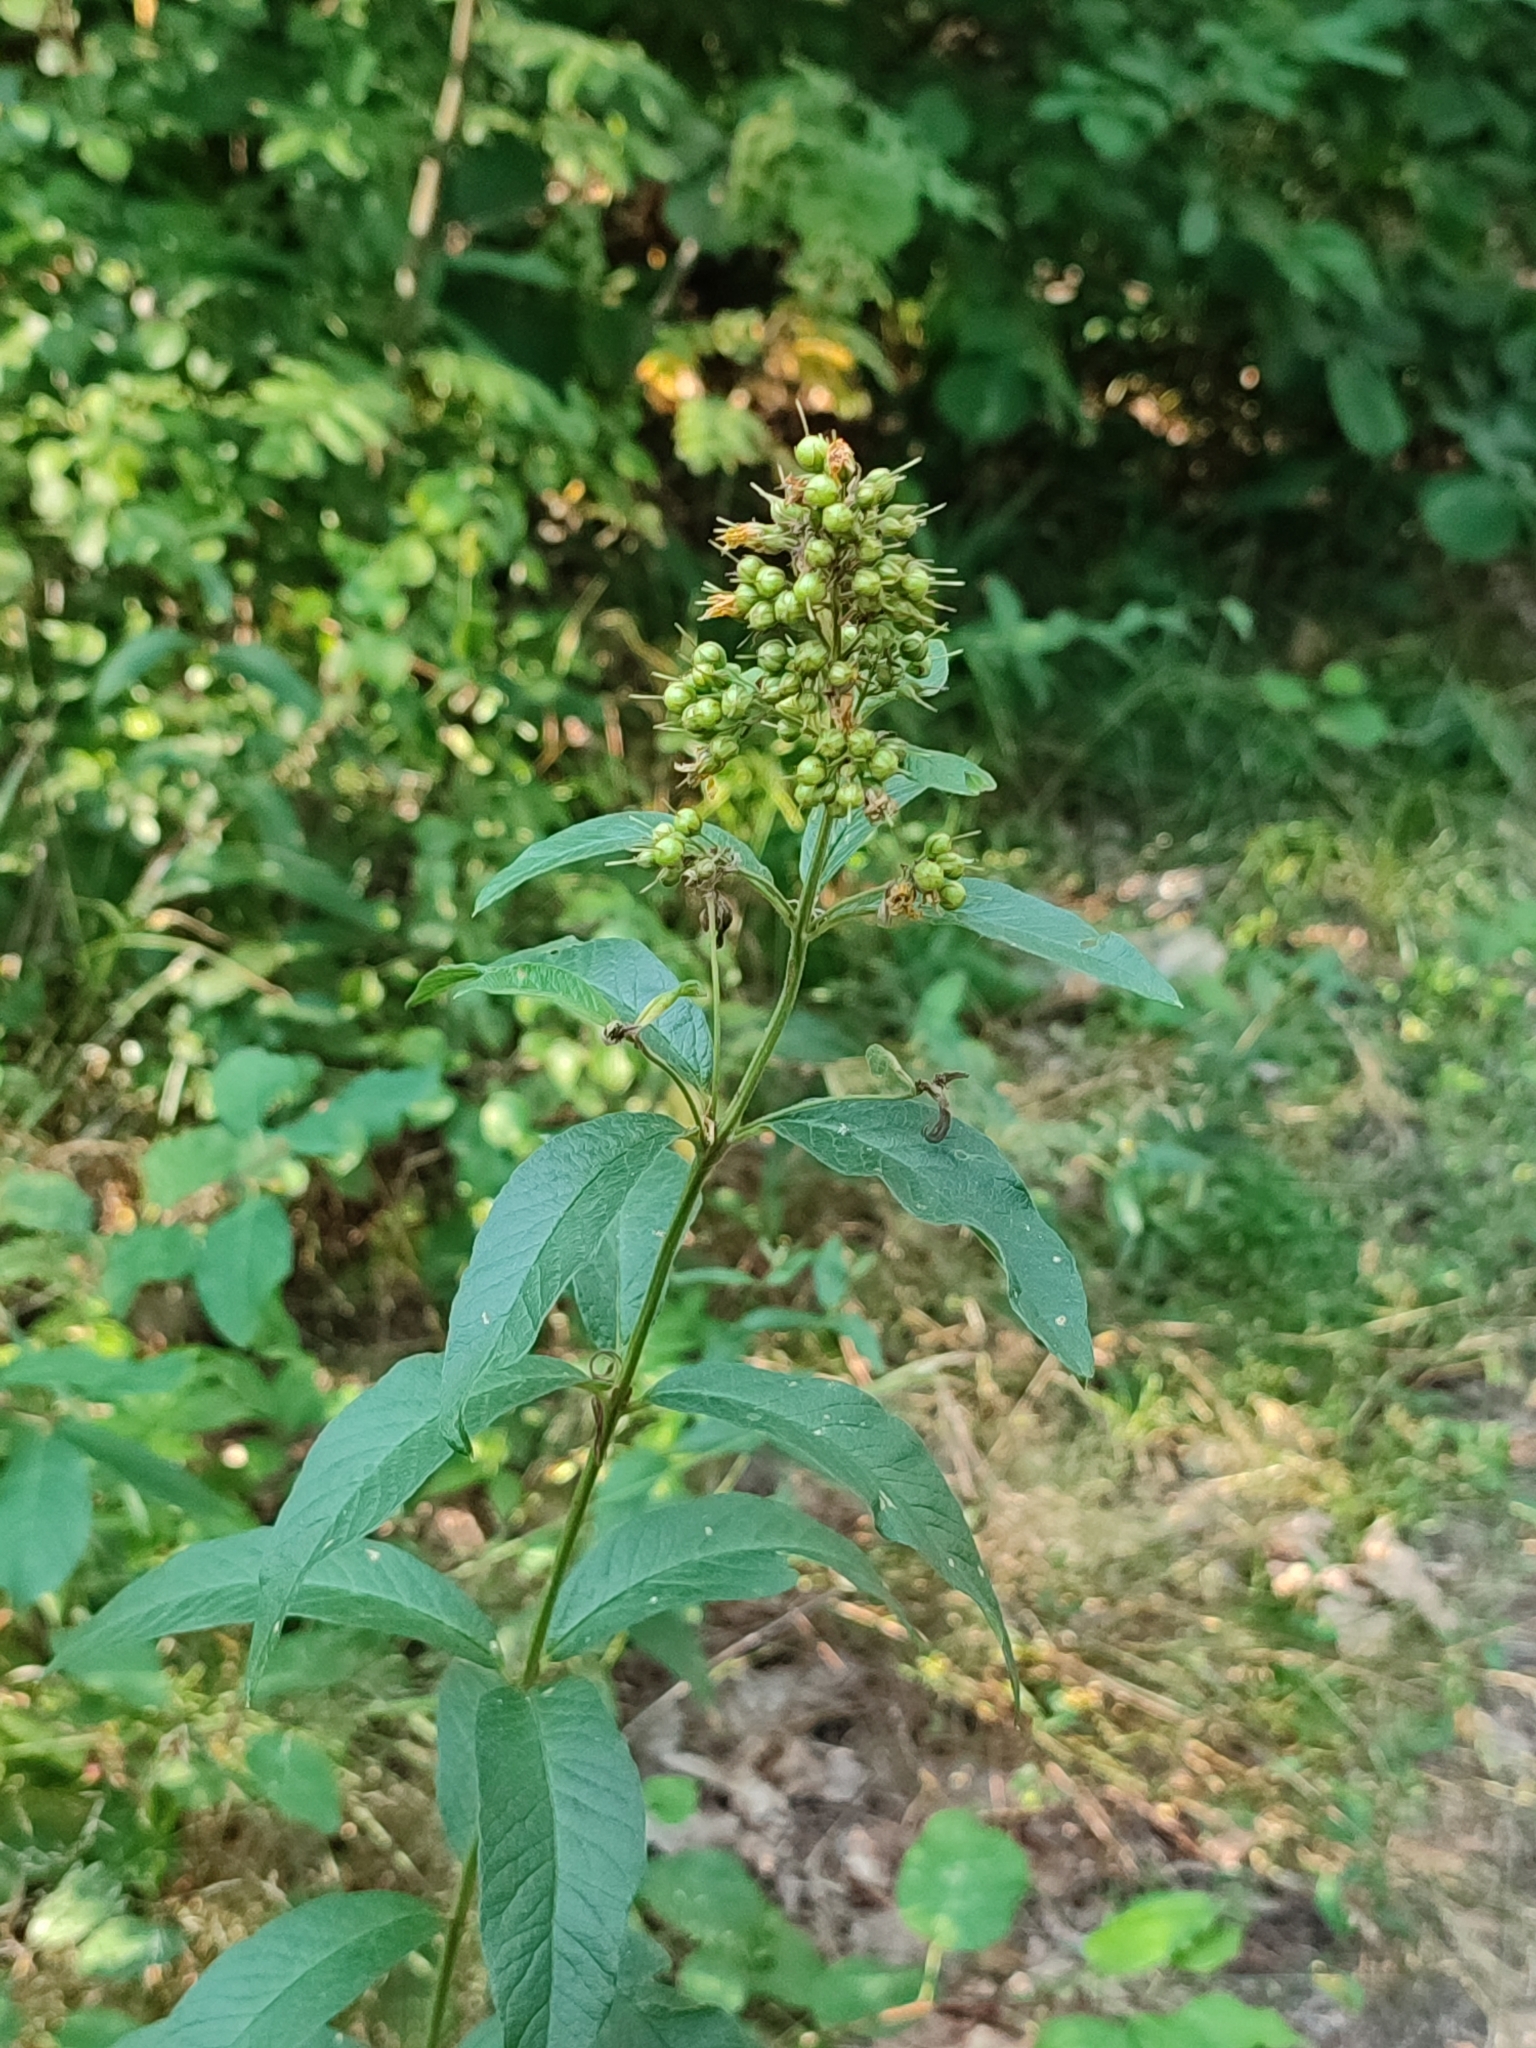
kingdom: Plantae
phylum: Tracheophyta
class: Magnoliopsida
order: Ericales
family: Primulaceae
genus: Lysimachia
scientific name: Lysimachia vulgaris
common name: Yellow loosestrife
